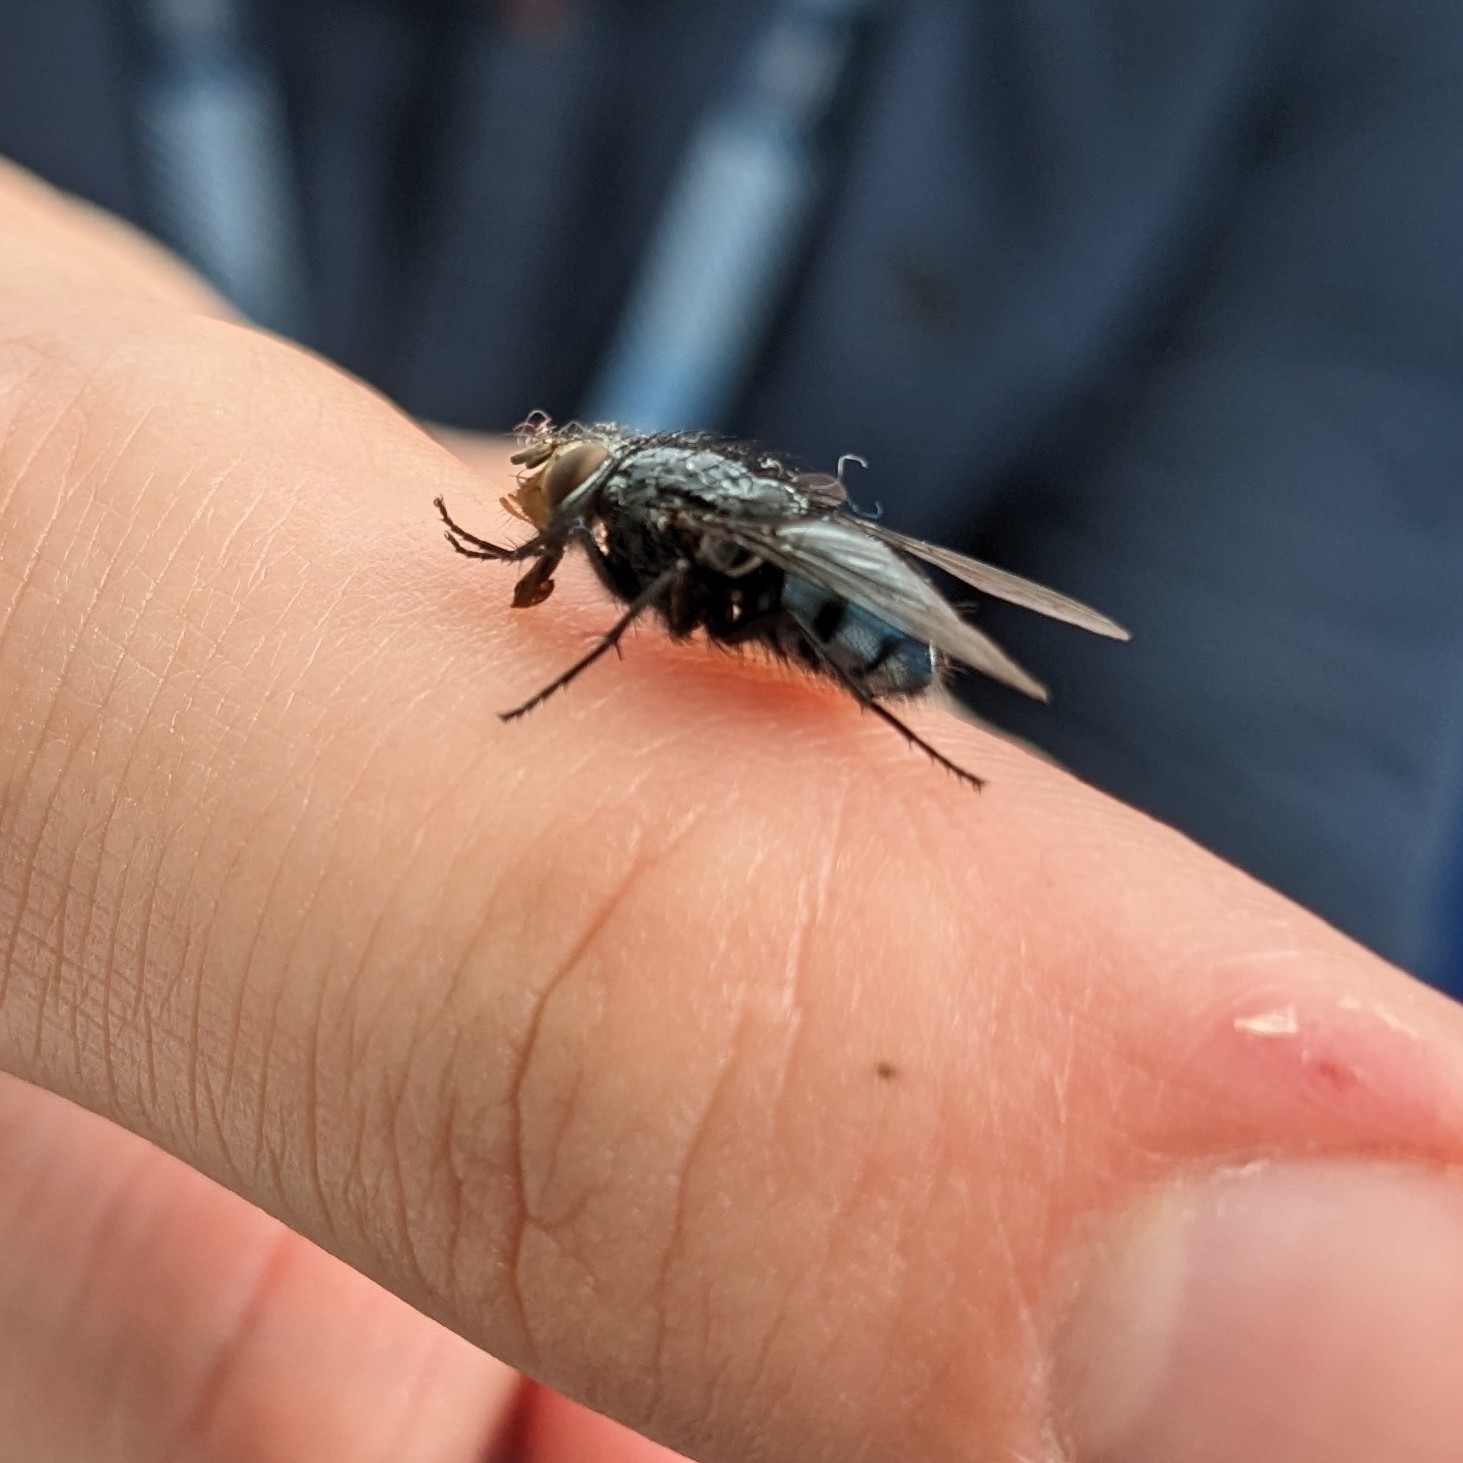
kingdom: Animalia
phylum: Arthropoda
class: Insecta
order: Diptera
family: Calliphoridae
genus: Calliphora
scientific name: Calliphora vicina
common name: Common blow flie
